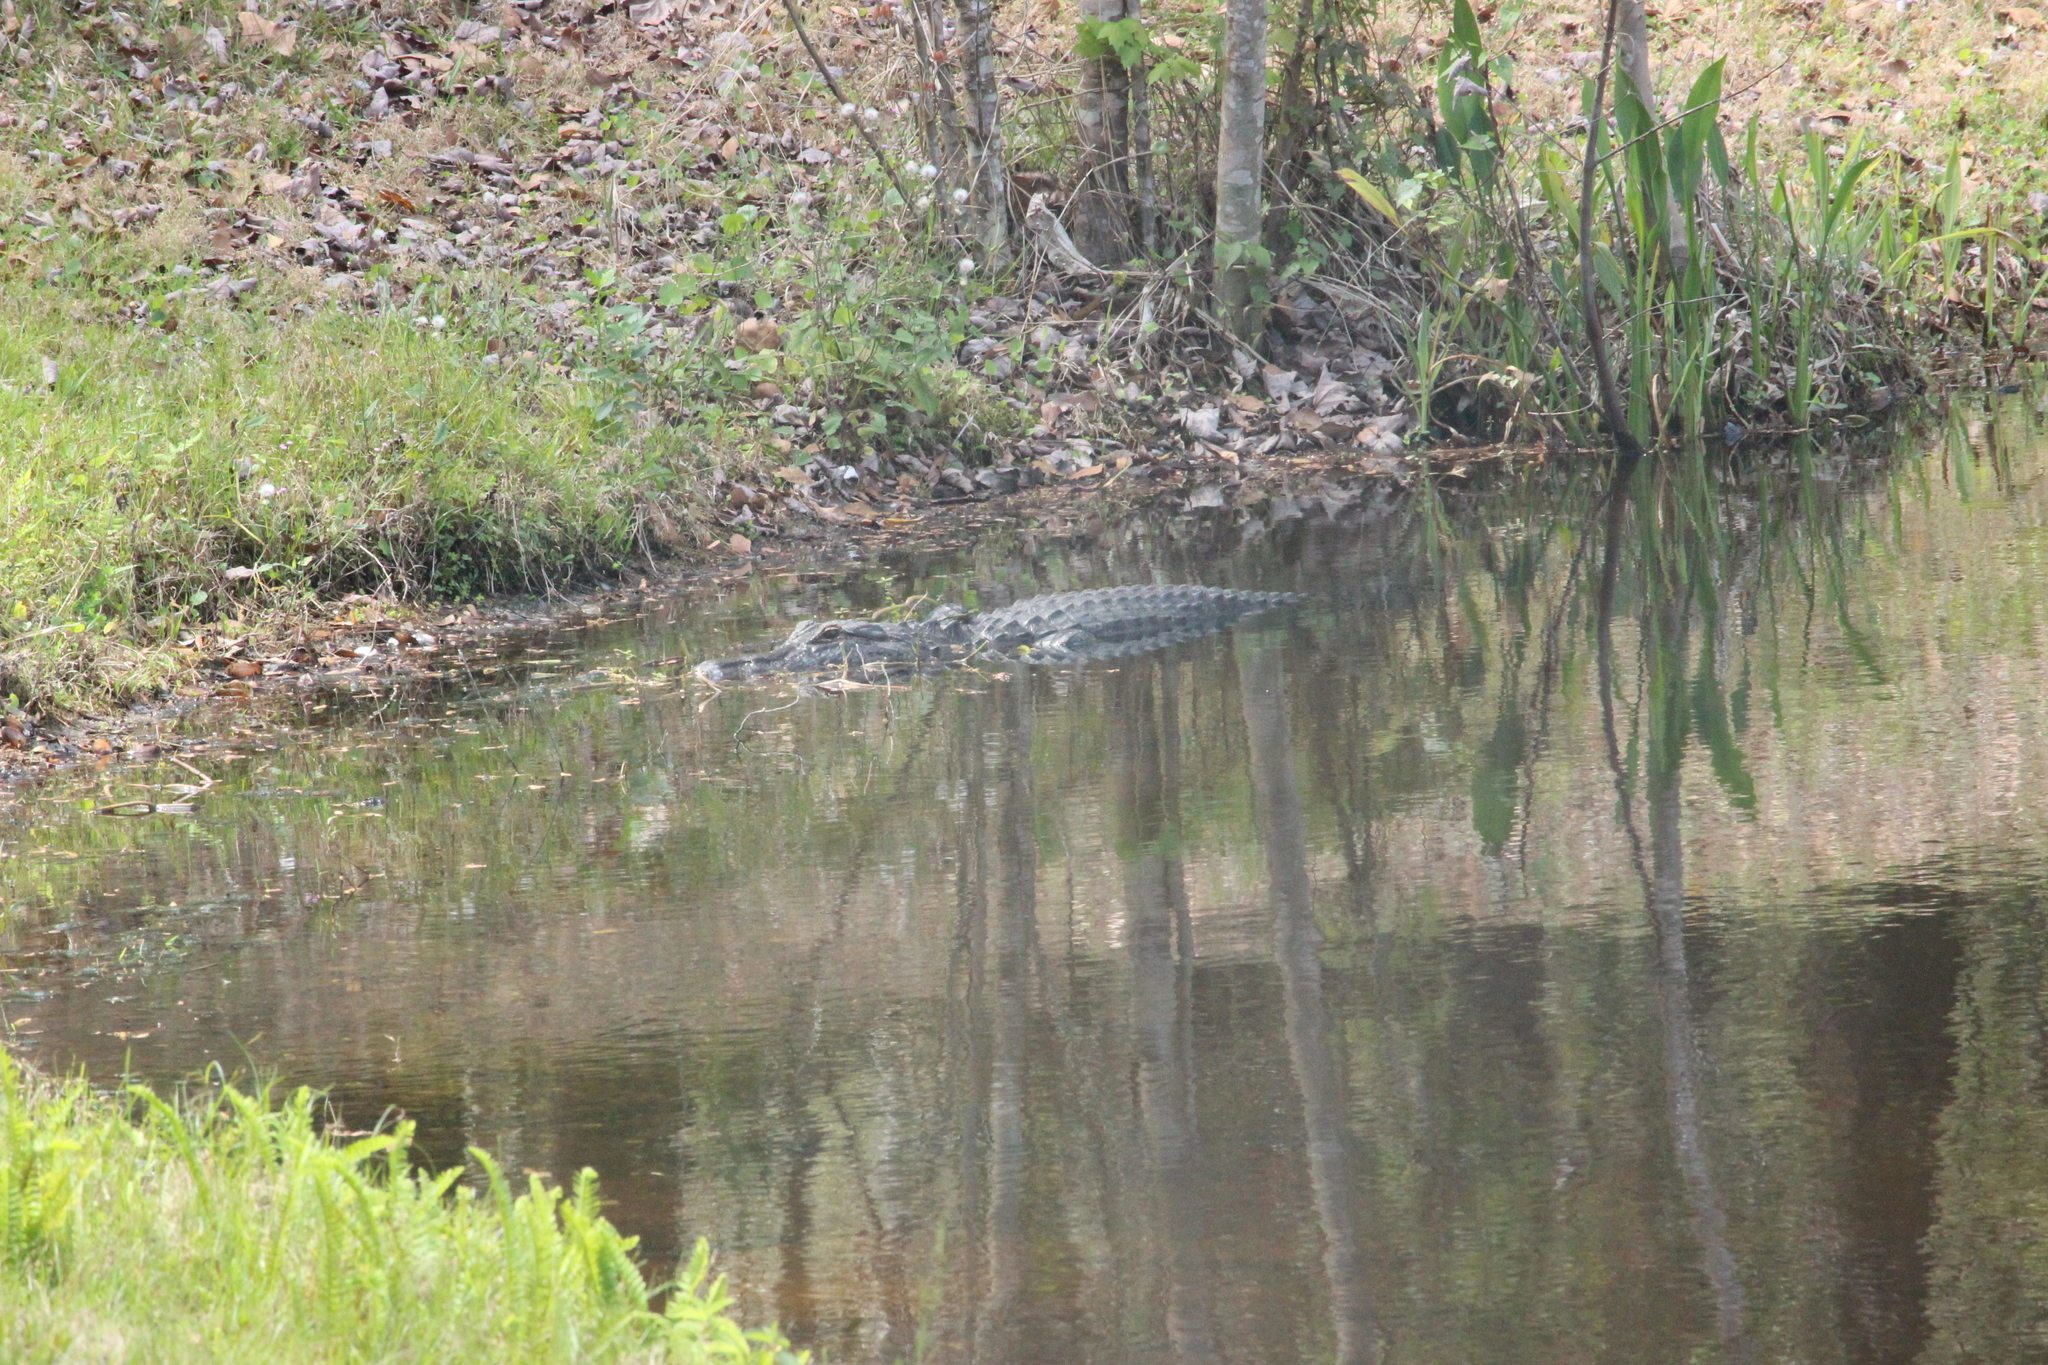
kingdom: Animalia
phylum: Chordata
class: Crocodylia
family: Alligatoridae
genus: Alligator
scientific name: Alligator mississippiensis
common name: American alligator
